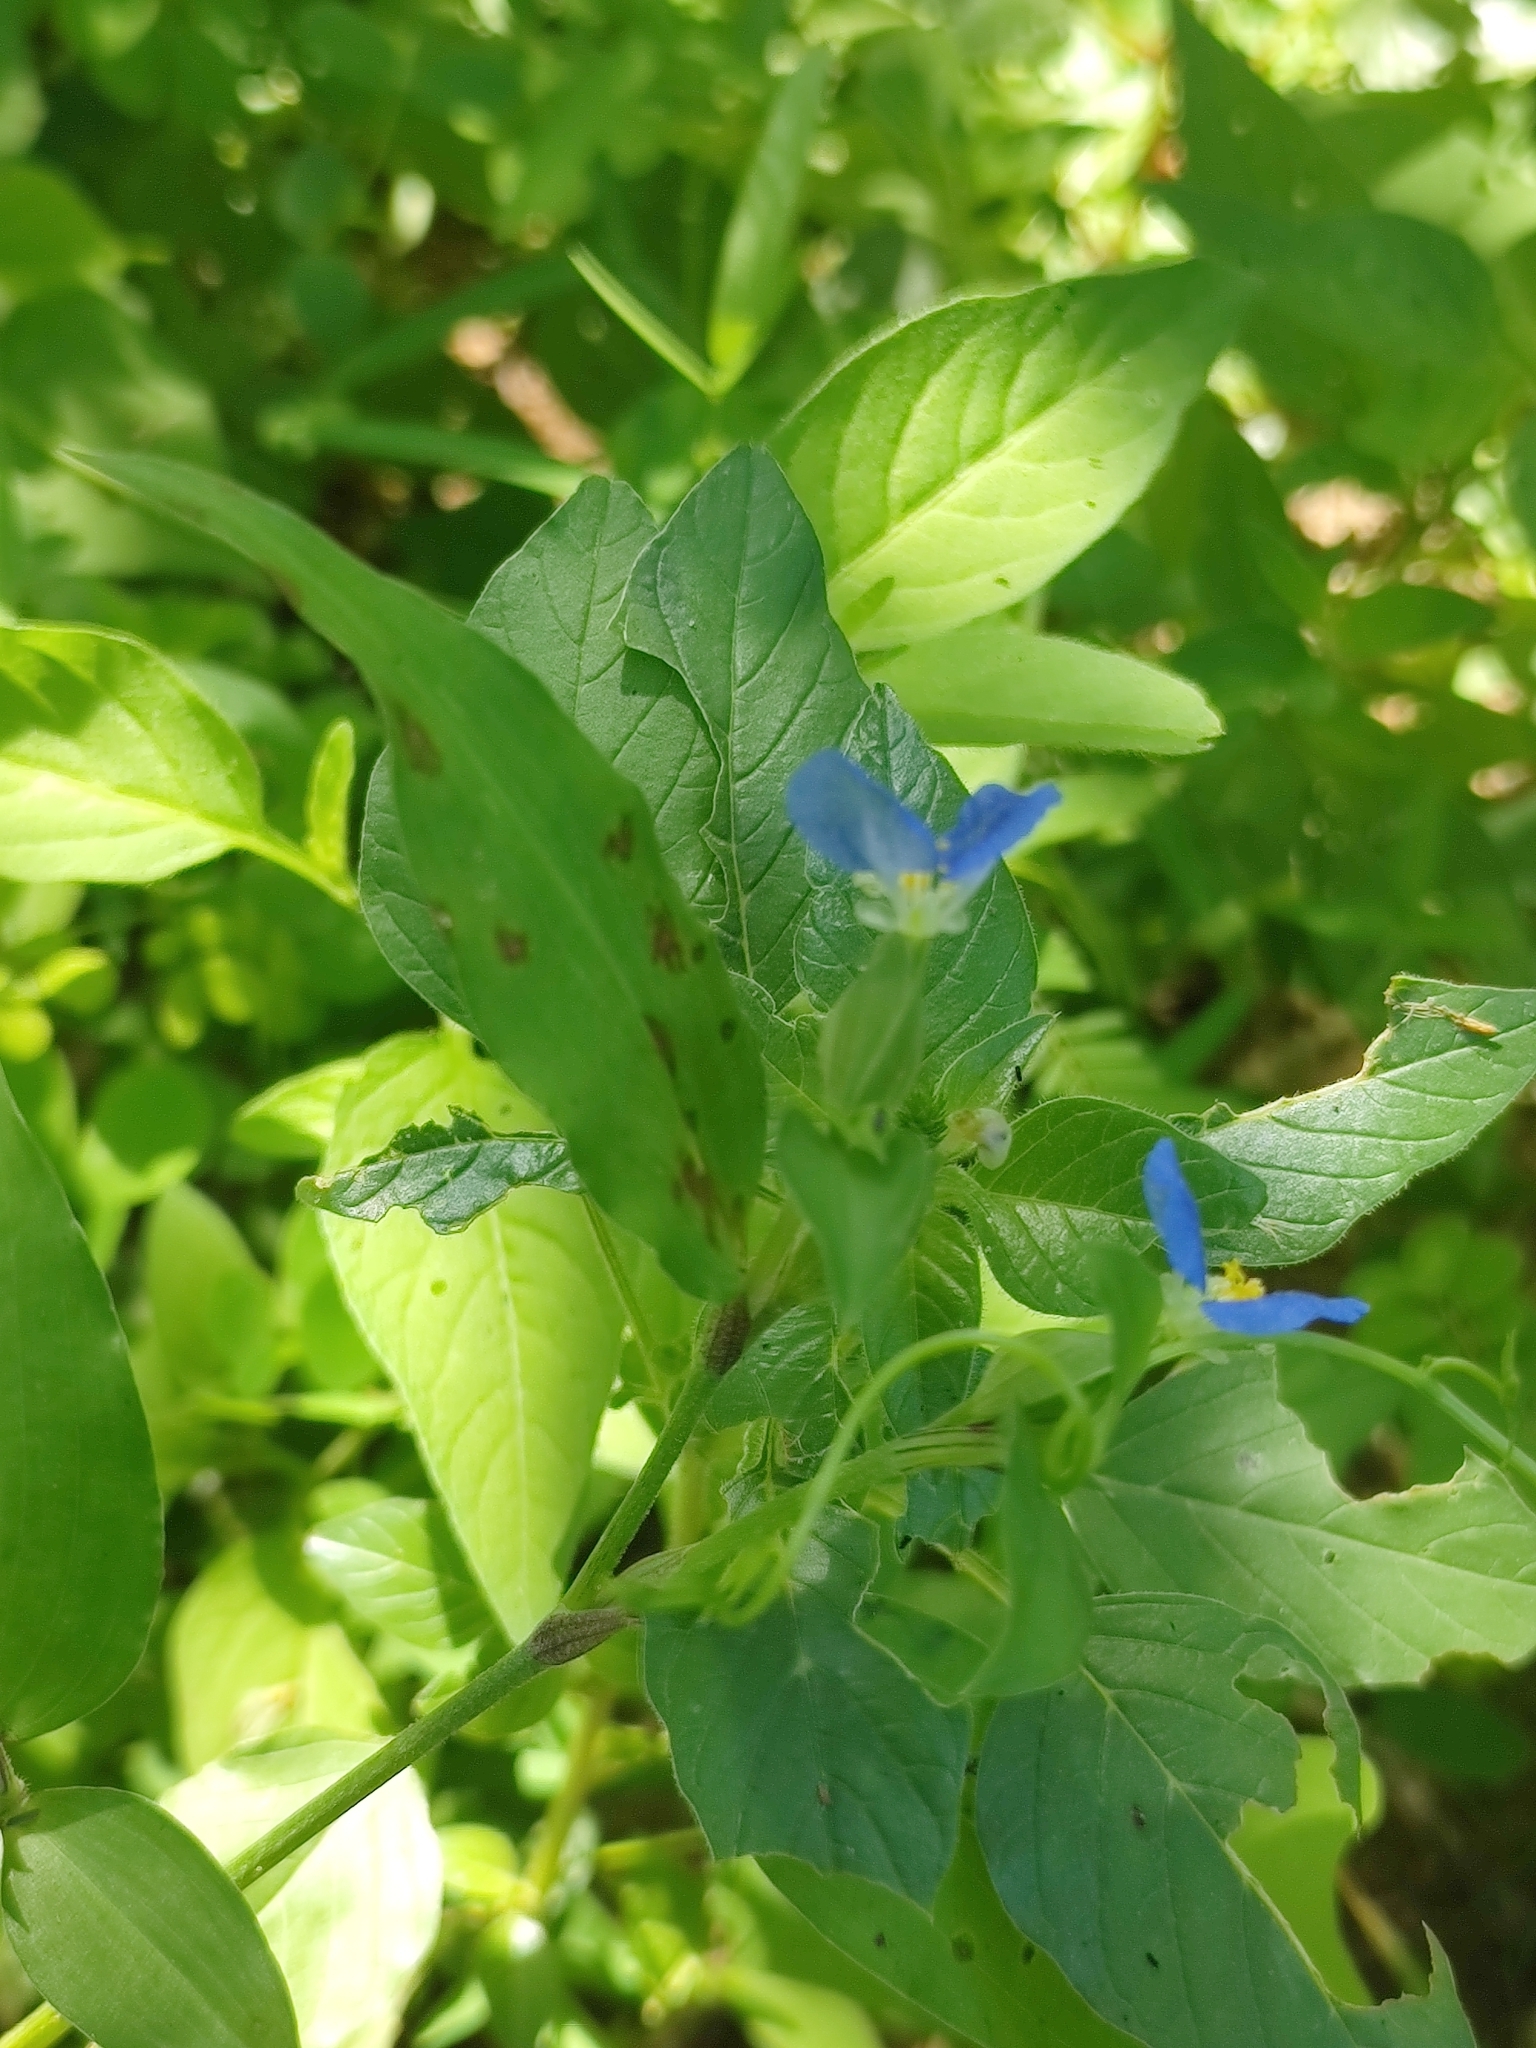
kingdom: Plantae
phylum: Tracheophyta
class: Liliopsida
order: Commelinales
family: Commelinaceae
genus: Commelina
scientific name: Commelina erecta
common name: Blousel blommetjie
